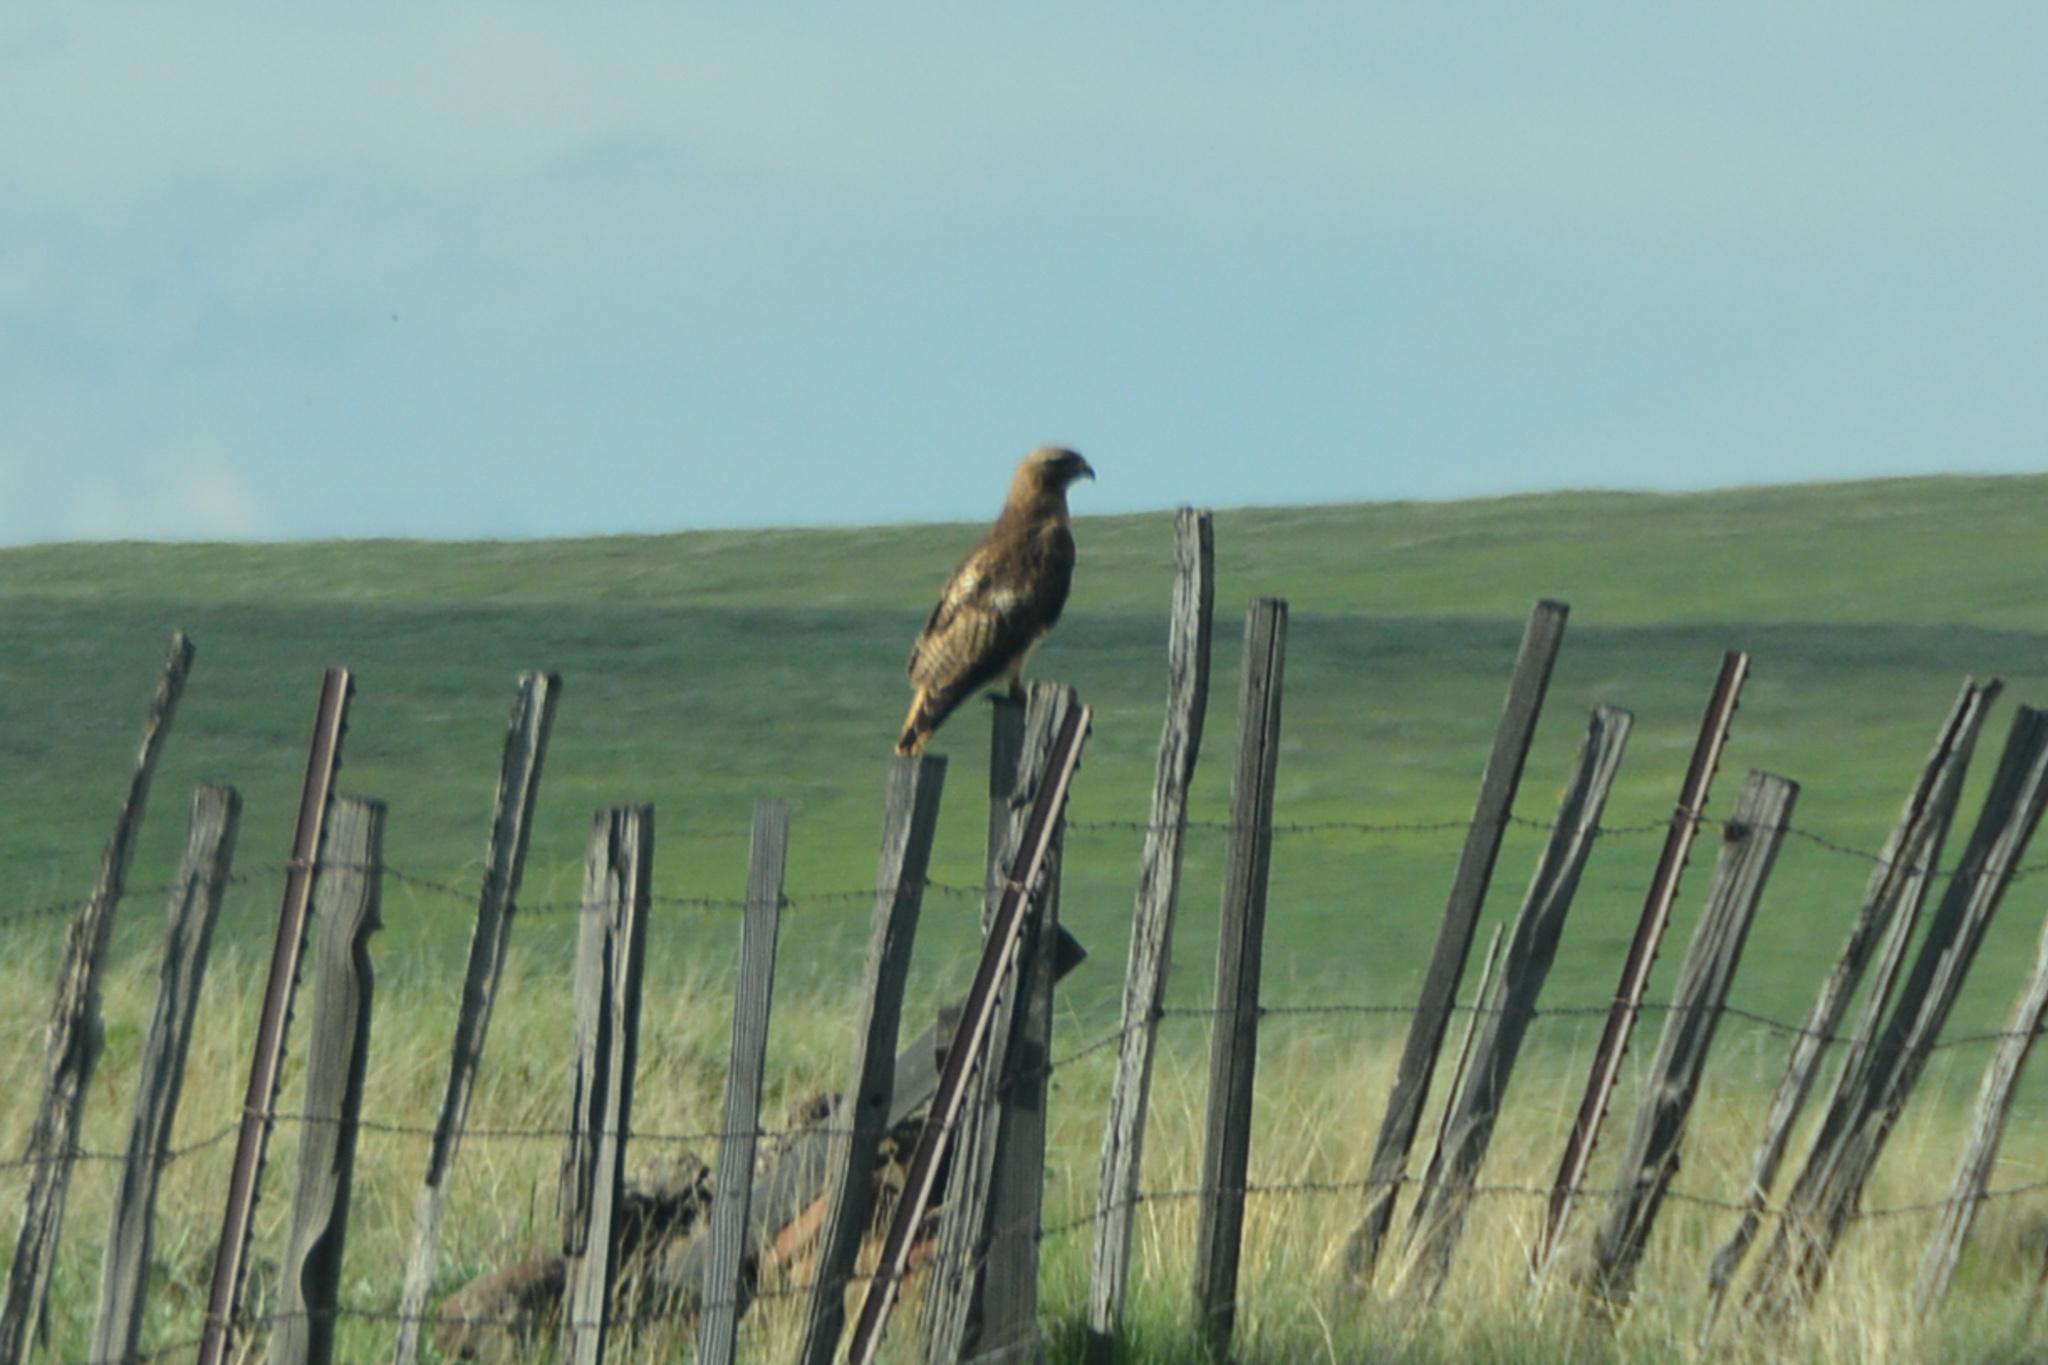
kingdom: Animalia
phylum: Chordata
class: Aves
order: Accipitriformes
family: Accipitridae
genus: Buteo
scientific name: Buteo jamaicensis
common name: Red-tailed hawk
